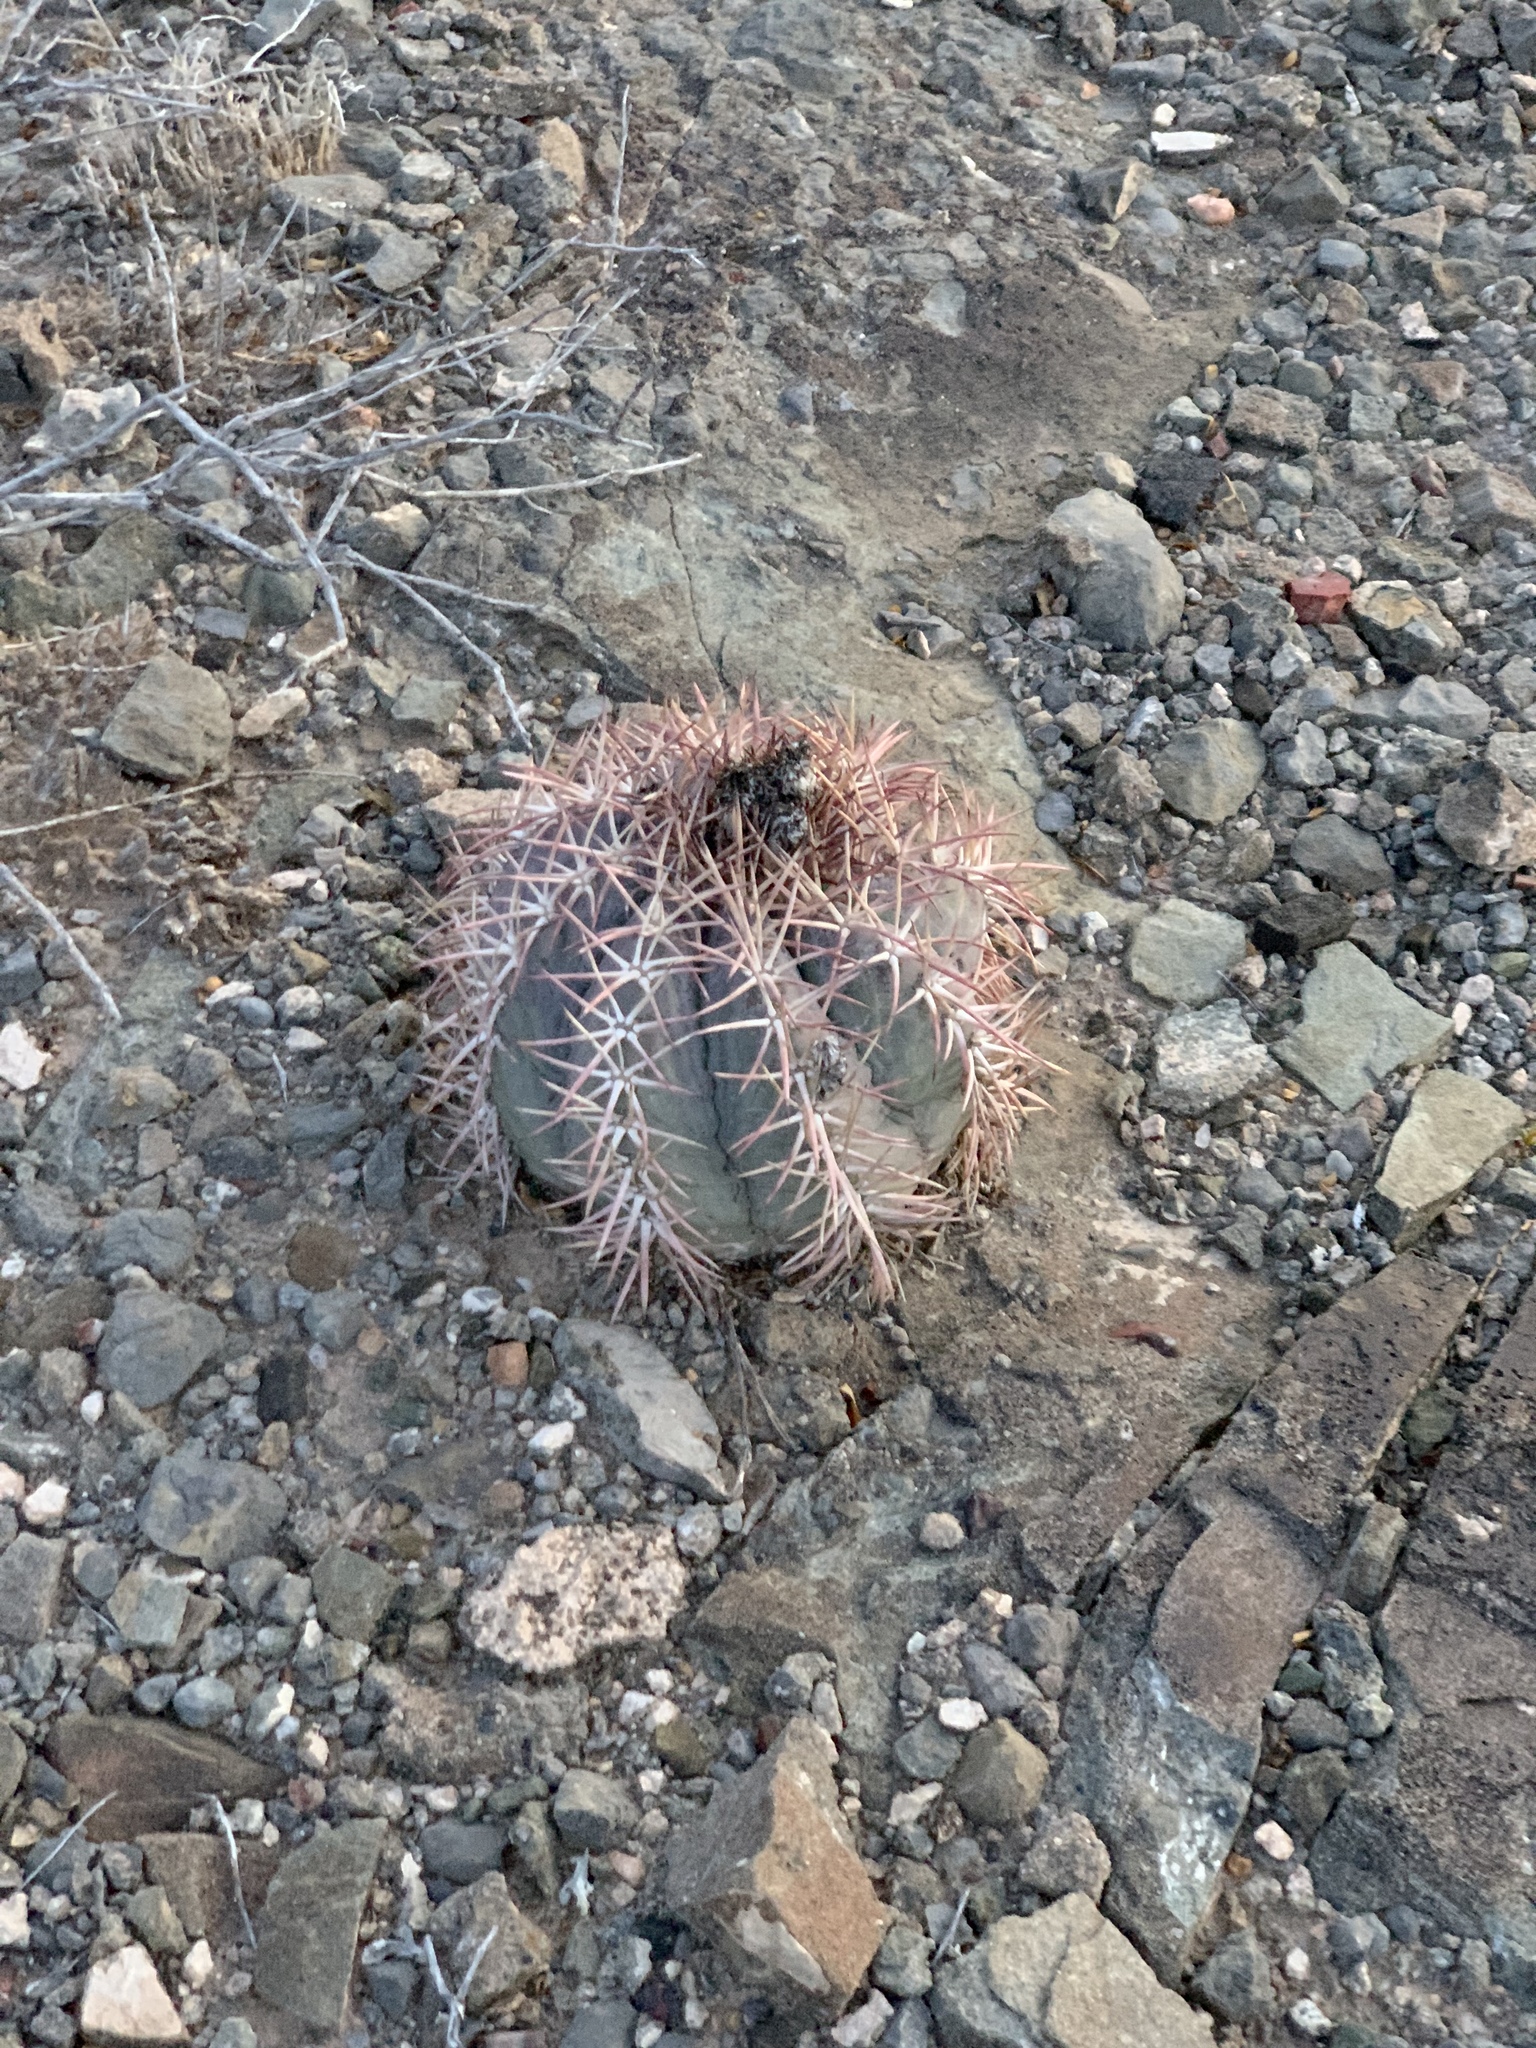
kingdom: Plantae
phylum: Tracheophyta
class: Magnoliopsida
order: Caryophyllales
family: Cactaceae
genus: Echinocactus
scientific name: Echinocactus horizonthalonius
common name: Devilshead
